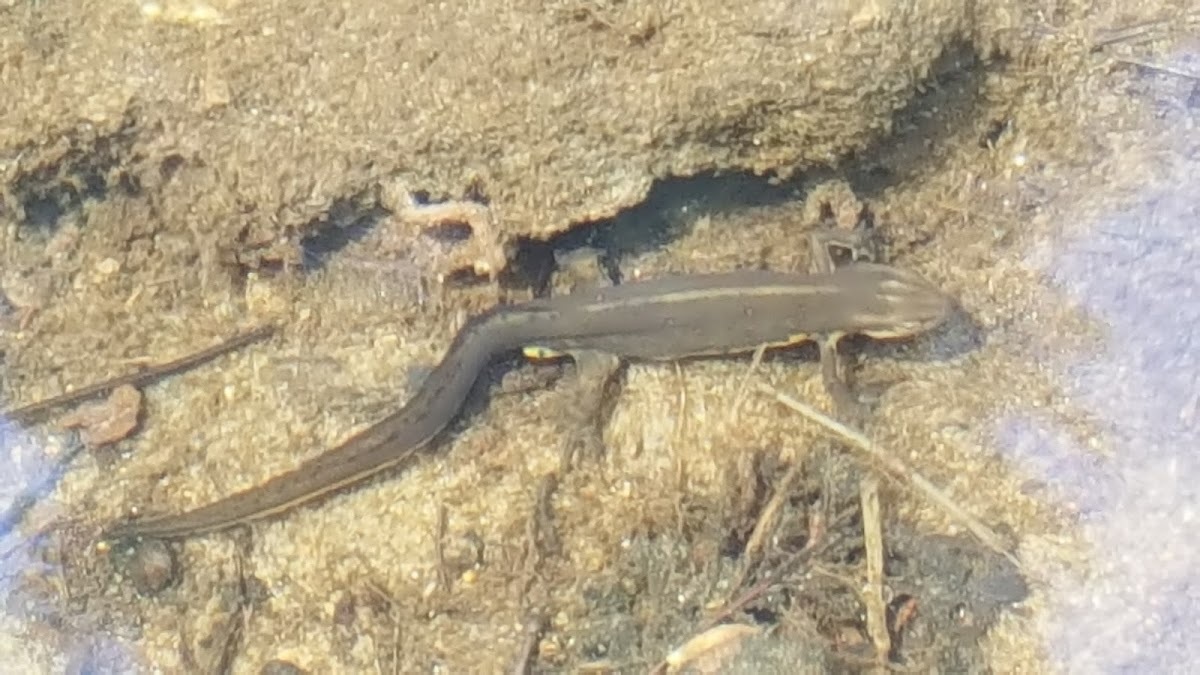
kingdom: Animalia
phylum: Chordata
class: Amphibia
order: Caudata
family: Salamandridae
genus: Notophthalmus
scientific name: Notophthalmus viridescens
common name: Eastern newt
